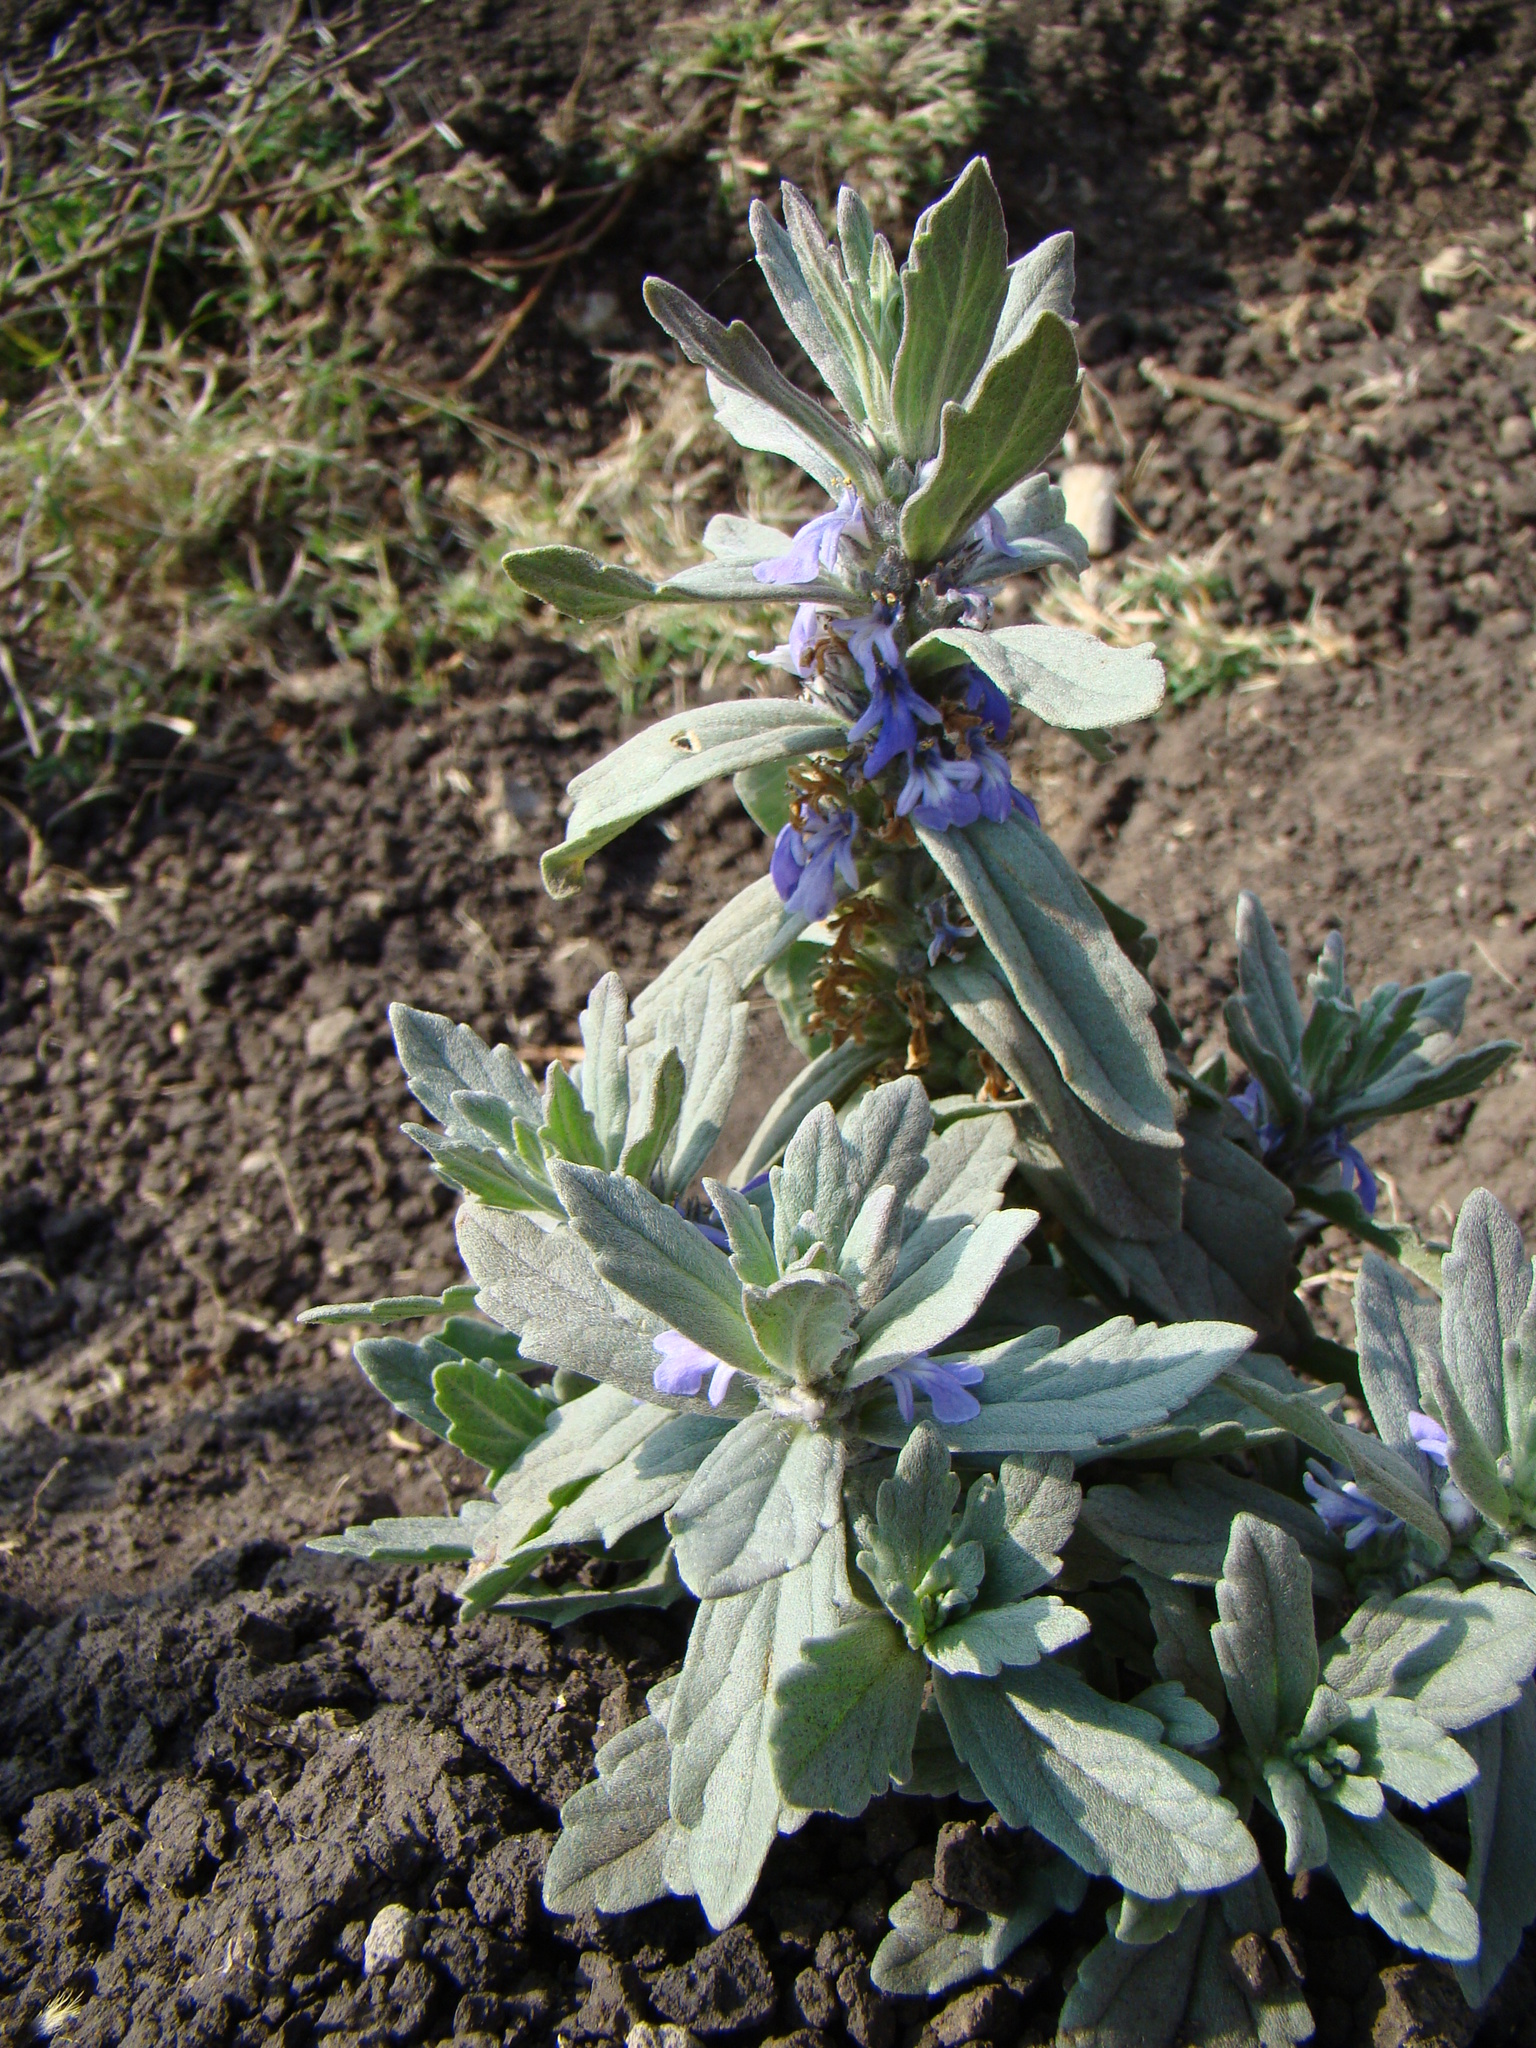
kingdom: Plantae
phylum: Tracheophyta
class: Magnoliopsida
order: Lamiales
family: Lamiaceae
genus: Ajuga
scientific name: Ajuga integrifolia
